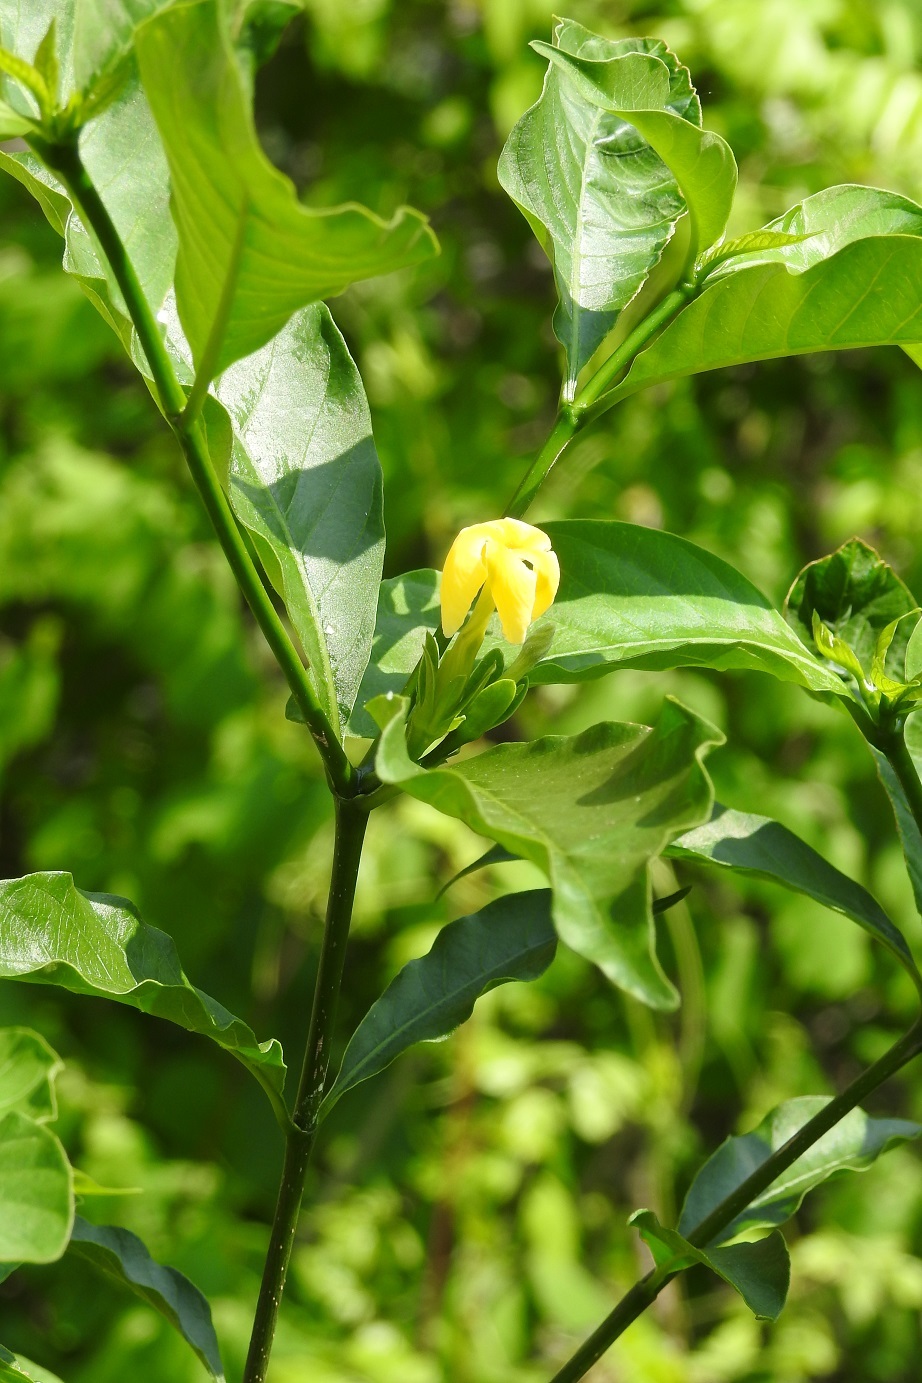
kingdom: Plantae
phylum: Tracheophyta
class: Magnoliopsida
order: Gentianales
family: Apocynaceae
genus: Tabernaemontana
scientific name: Tabernaemontana hannae
